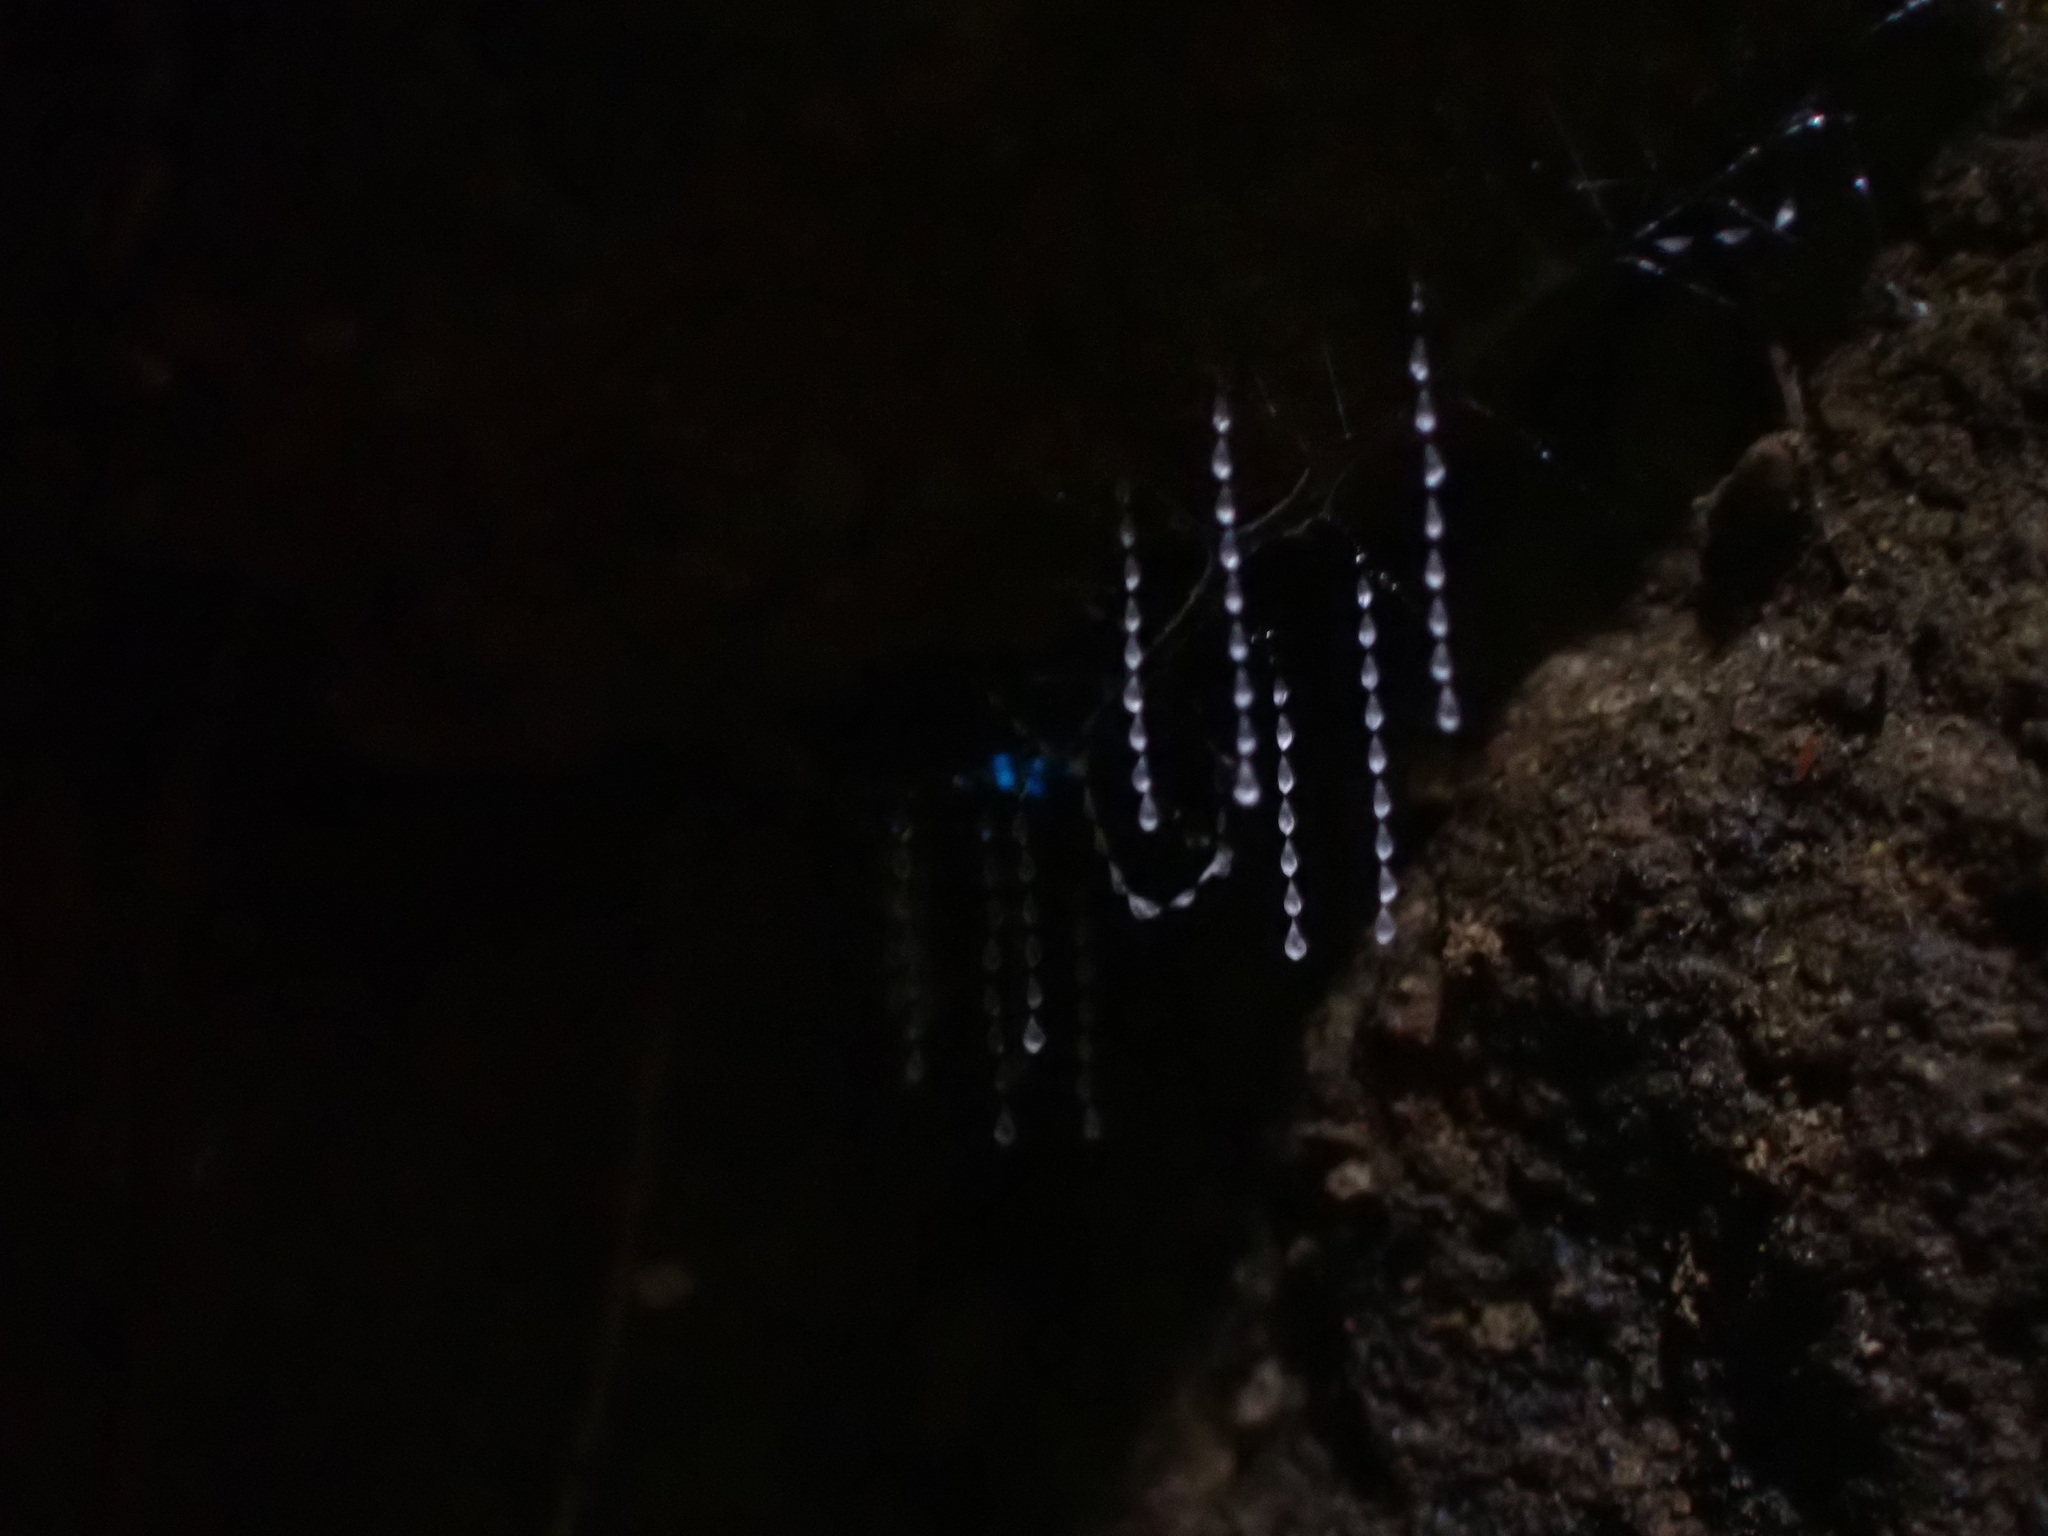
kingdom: Animalia
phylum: Arthropoda
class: Insecta
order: Diptera
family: Keroplatidae
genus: Arachnocampa
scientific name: Arachnocampa otwayensis
